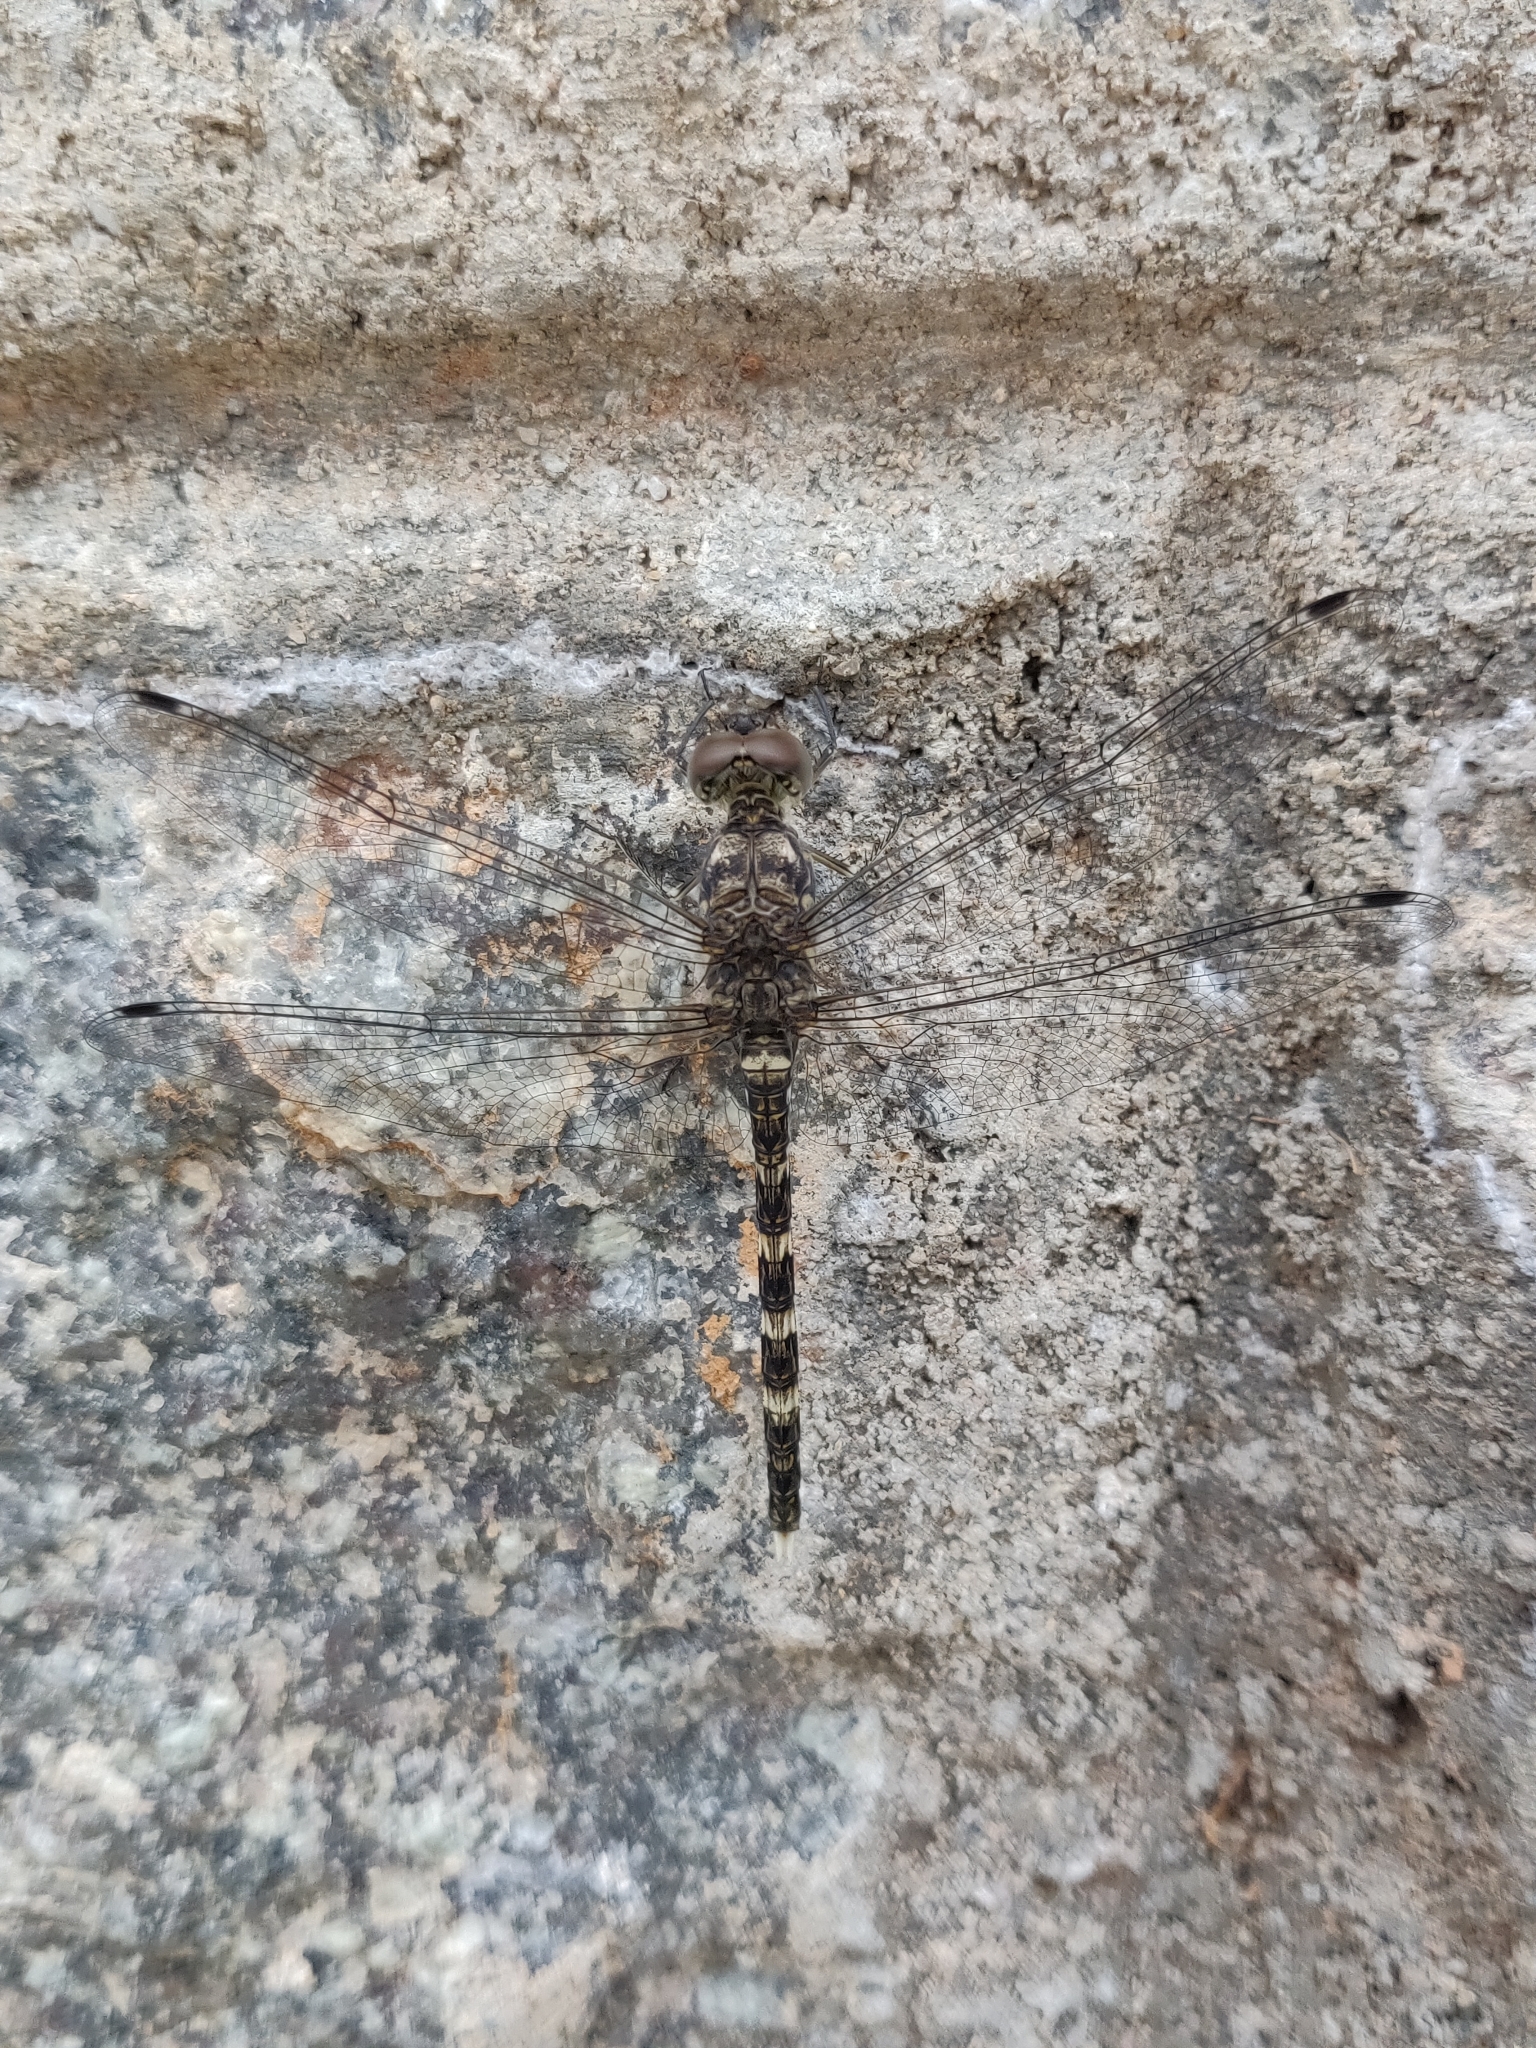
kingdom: Animalia
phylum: Arthropoda
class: Insecta
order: Odonata
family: Libellulidae
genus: Bradinopyga
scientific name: Bradinopyga geminata
